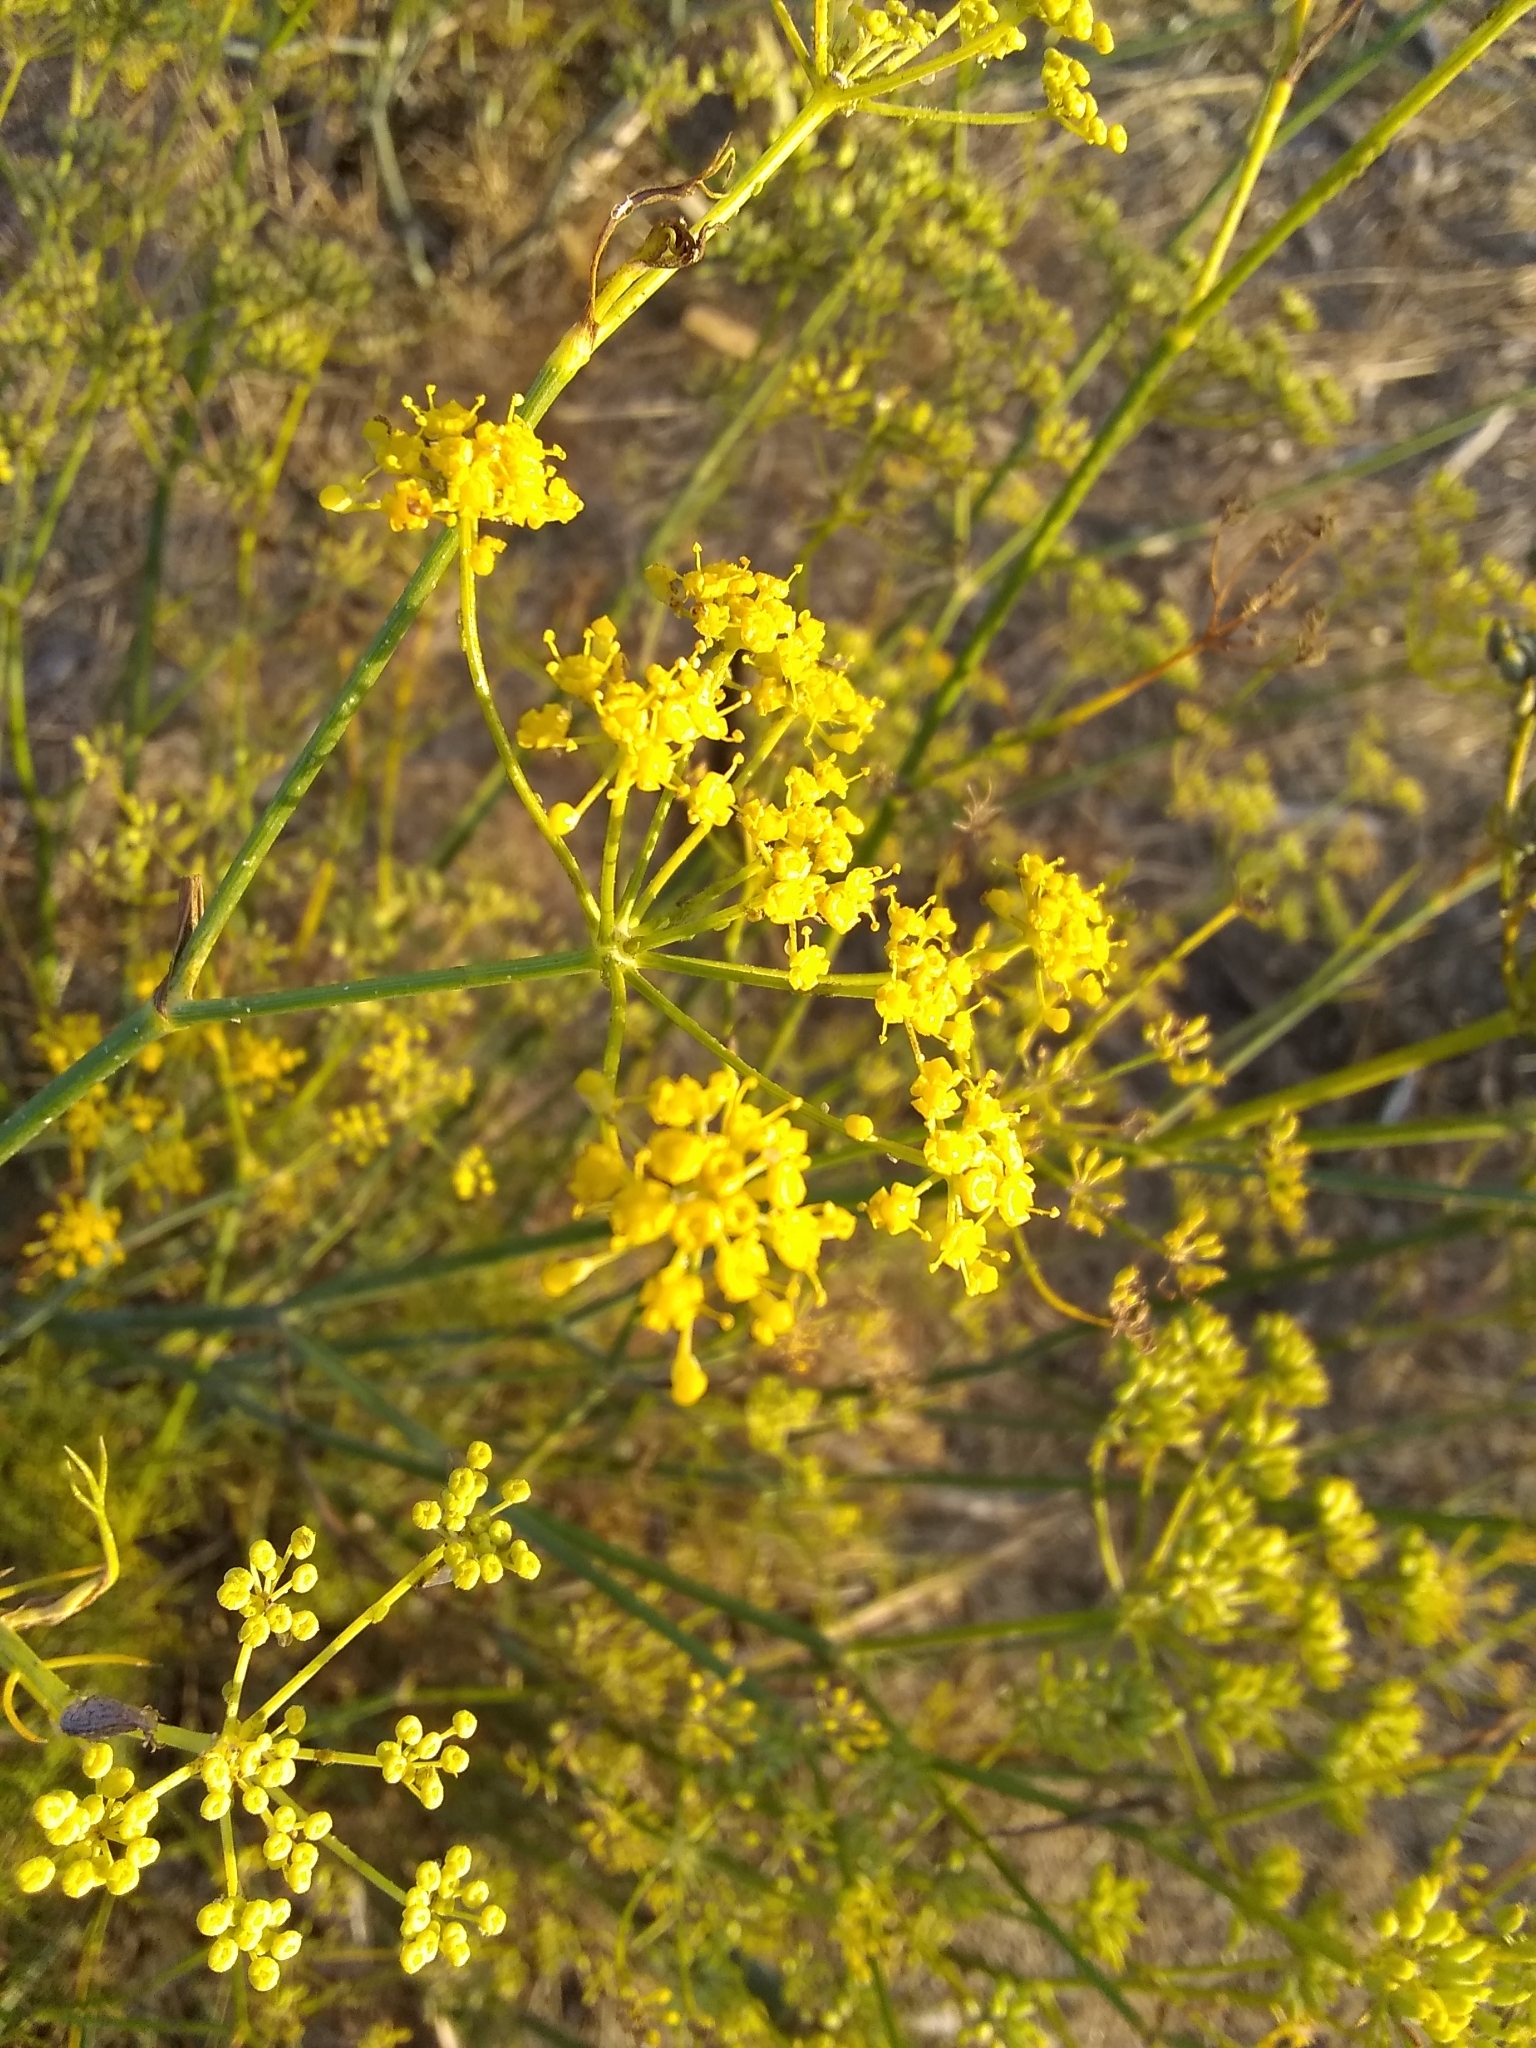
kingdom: Plantae
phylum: Tracheophyta
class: Magnoliopsida
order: Apiales
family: Apiaceae
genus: Foeniculum
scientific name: Foeniculum vulgare
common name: Fennel
